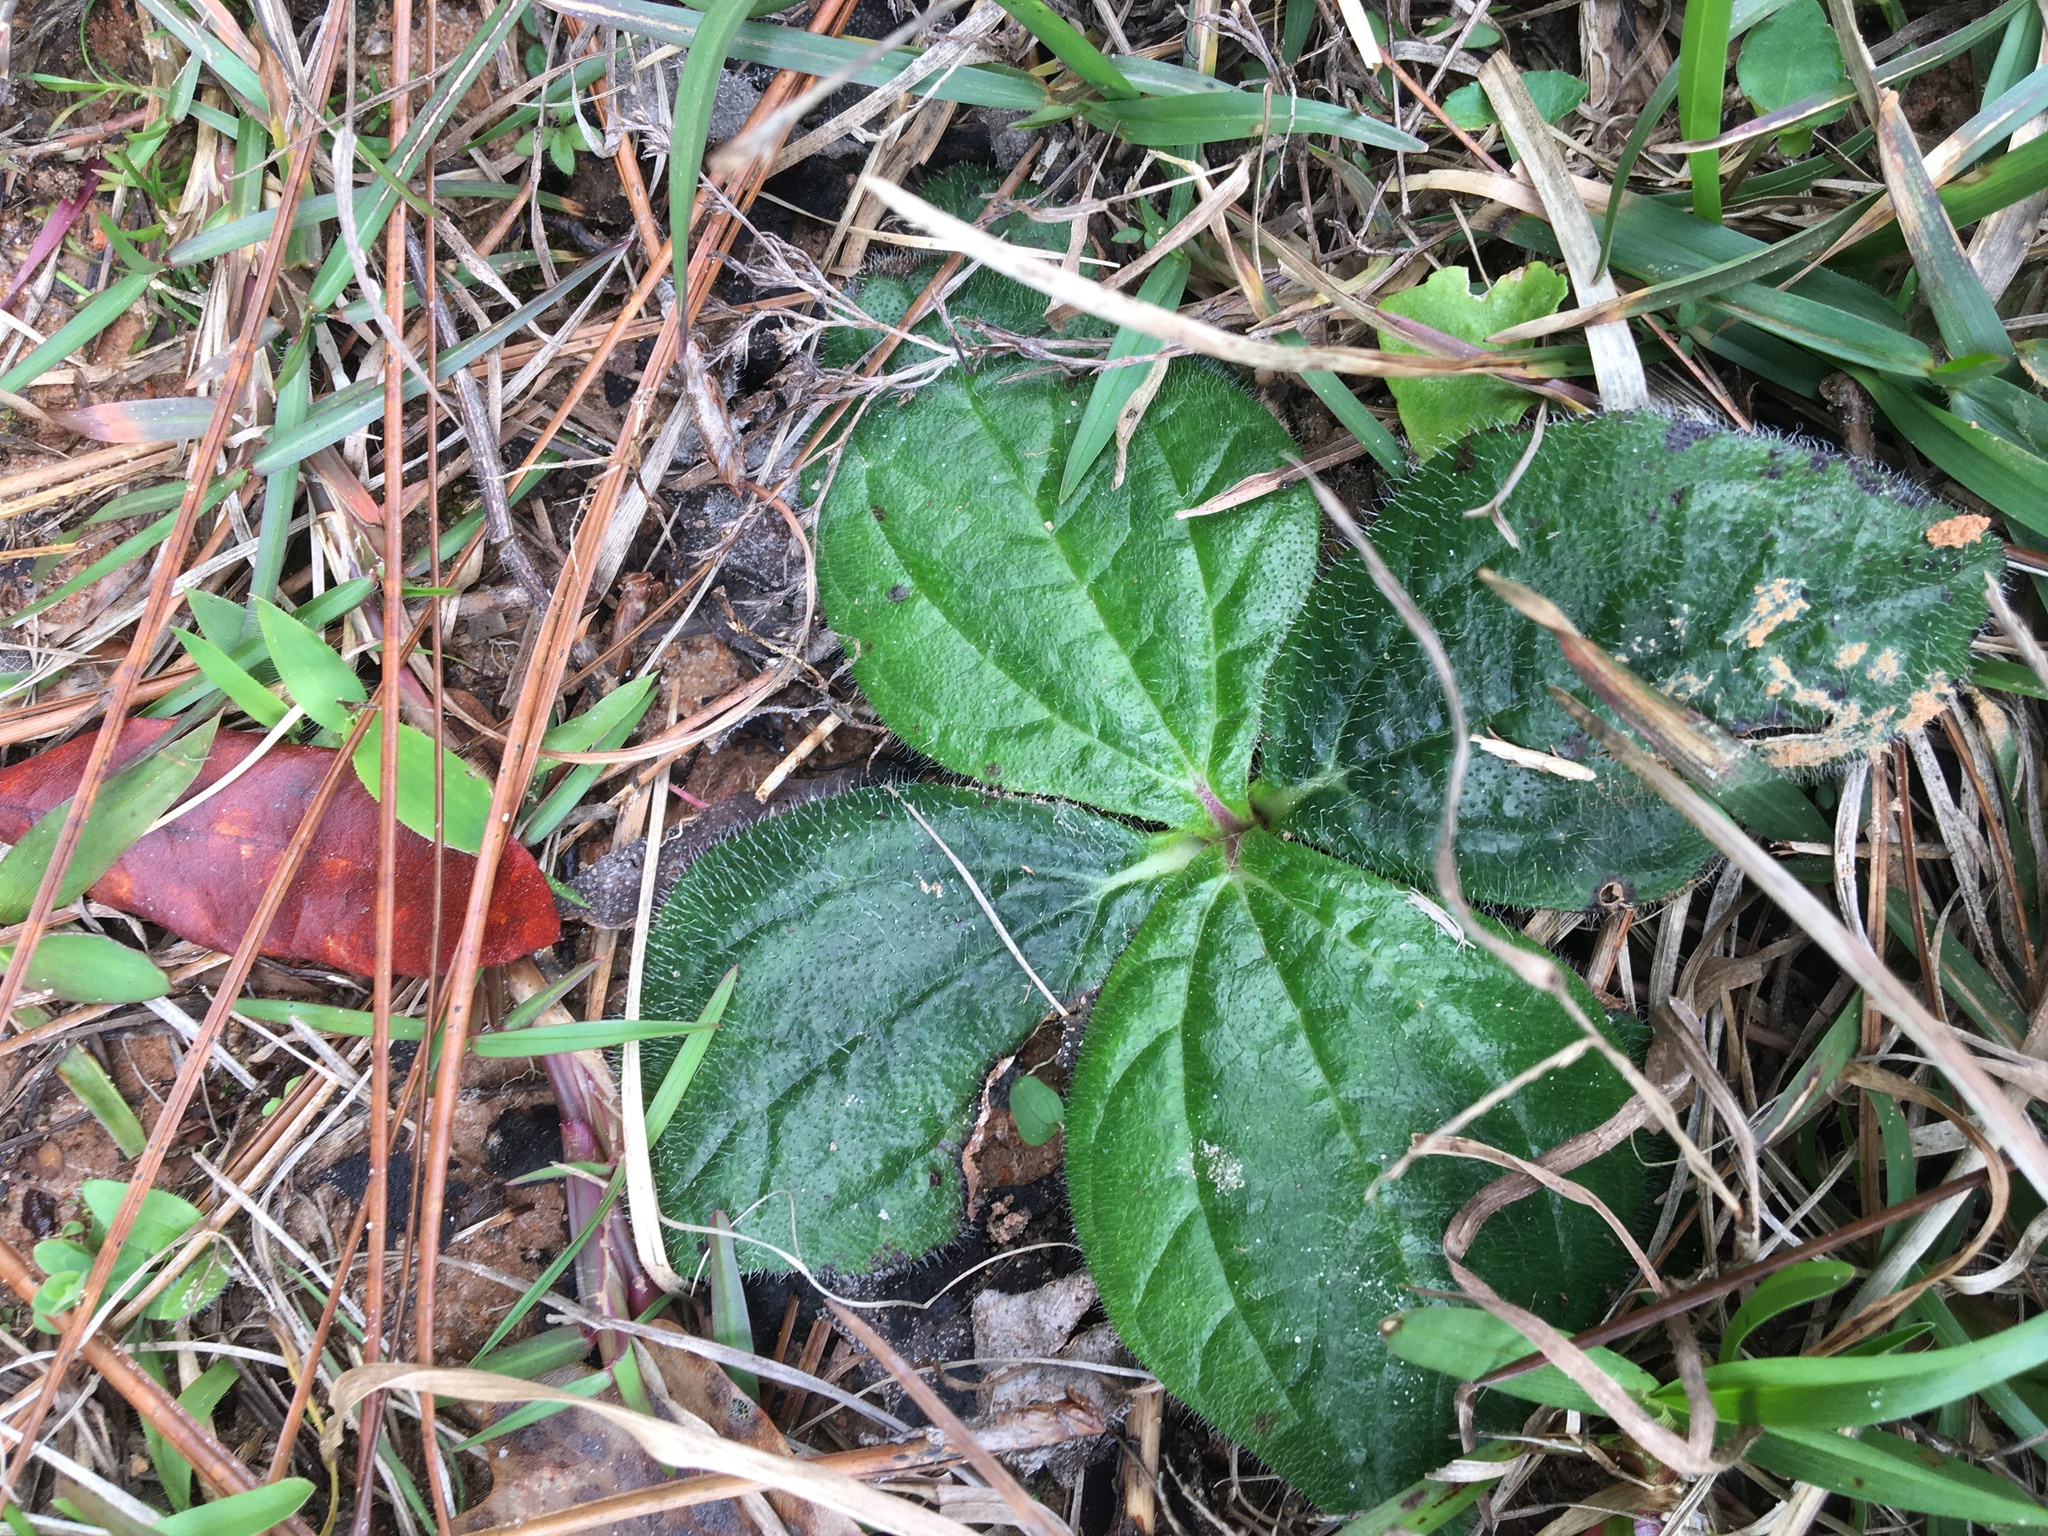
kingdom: Plantae
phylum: Tracheophyta
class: Magnoliopsida
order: Asterales
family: Asteraceae
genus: Helianthus
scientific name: Helianthus radula
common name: Pineland sunflower
